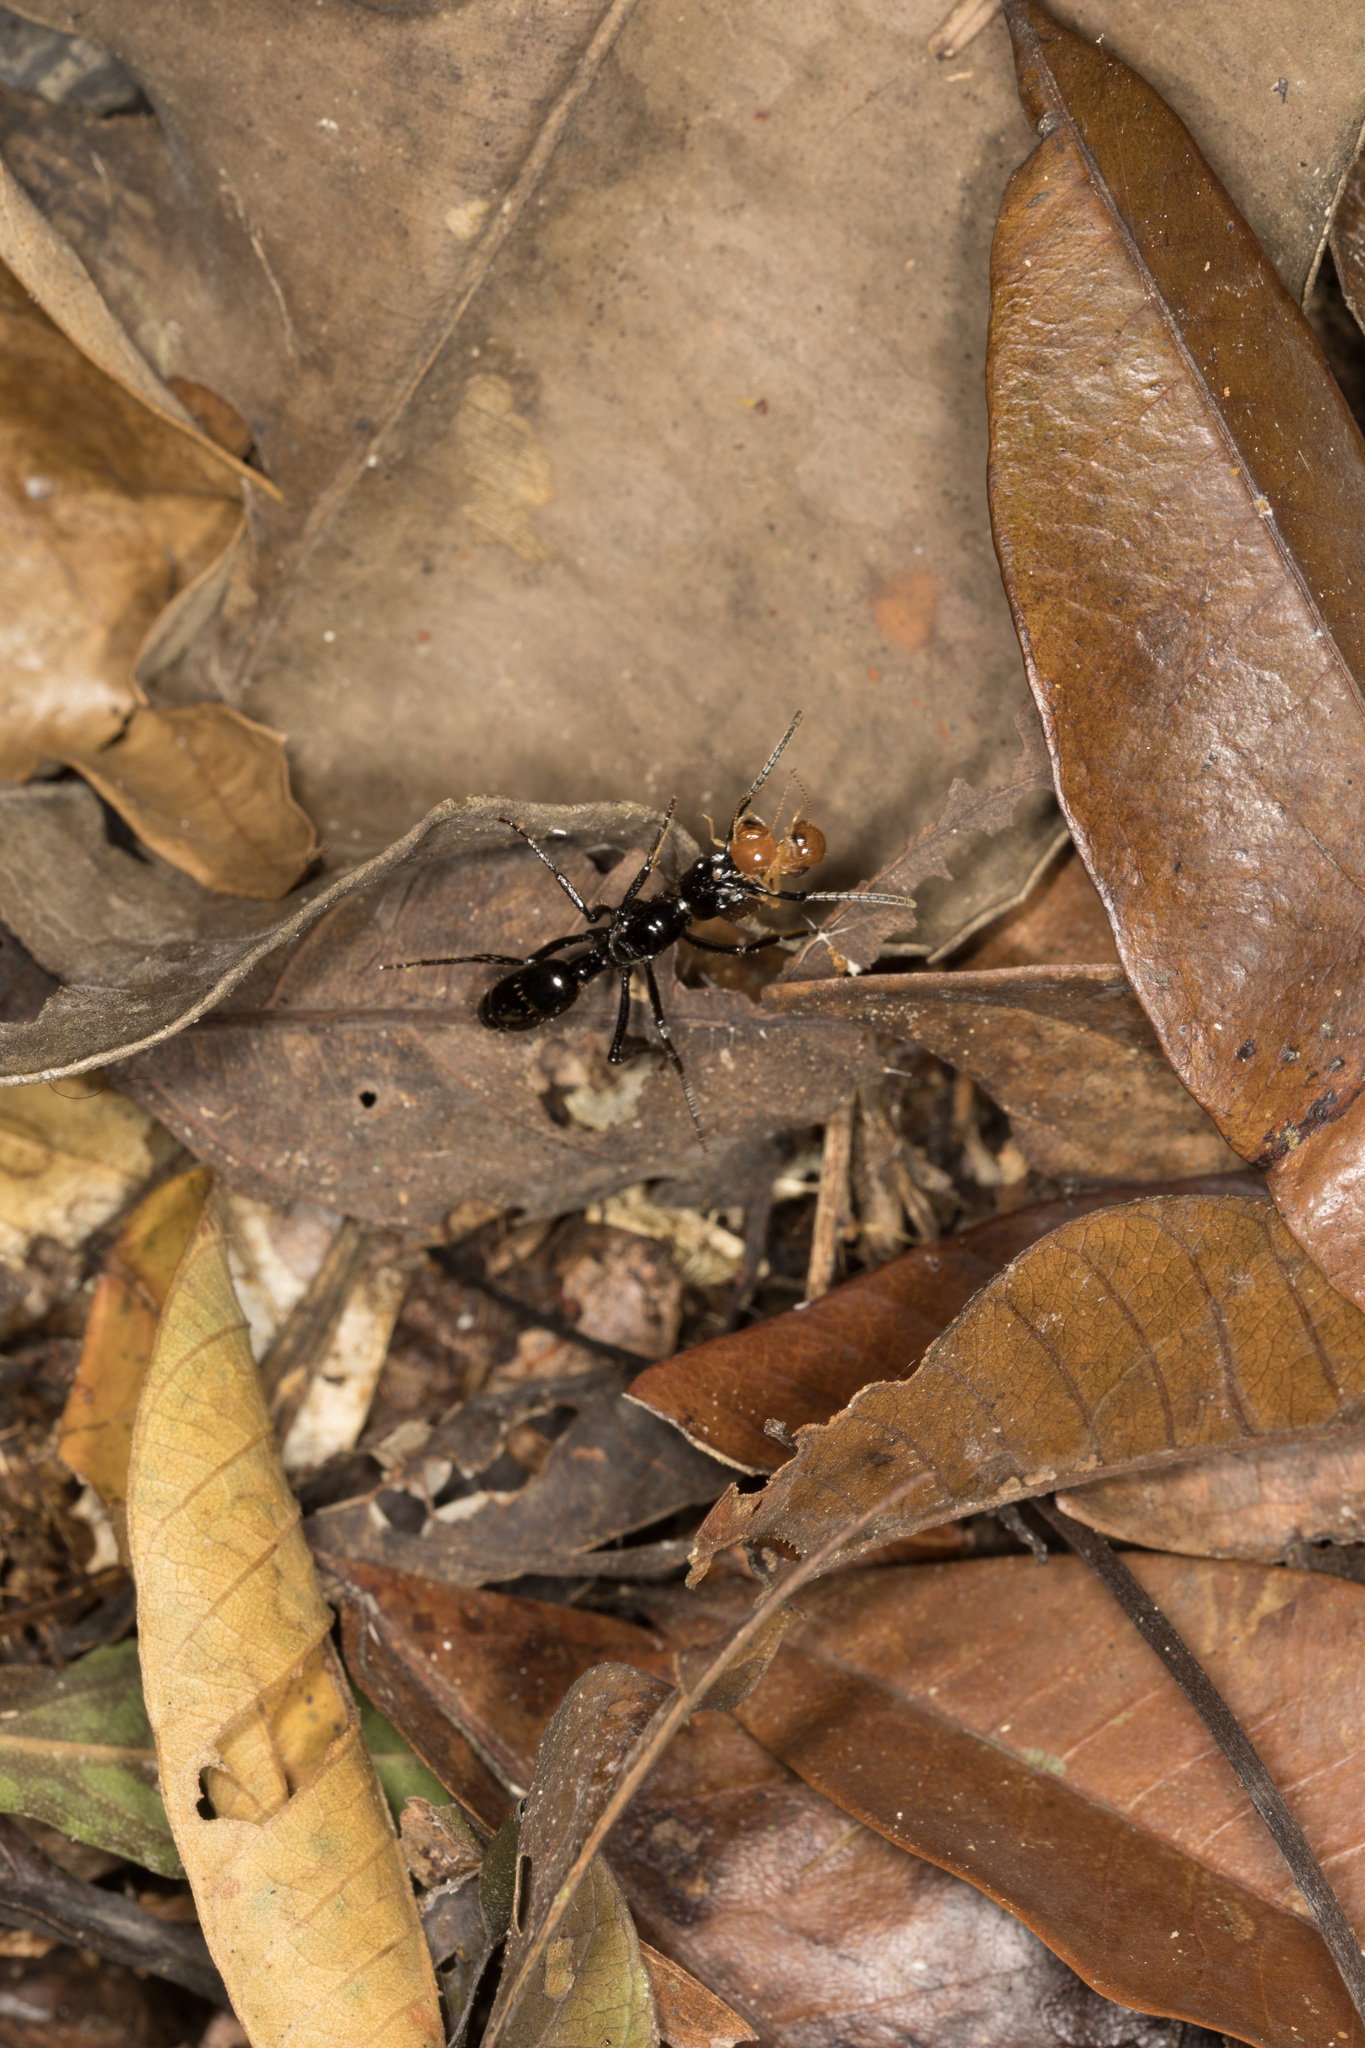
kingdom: Animalia
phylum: Arthropoda
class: Insecta
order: Hymenoptera
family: Formicidae
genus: Pachycondyla
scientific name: Pachycondyla commutata
